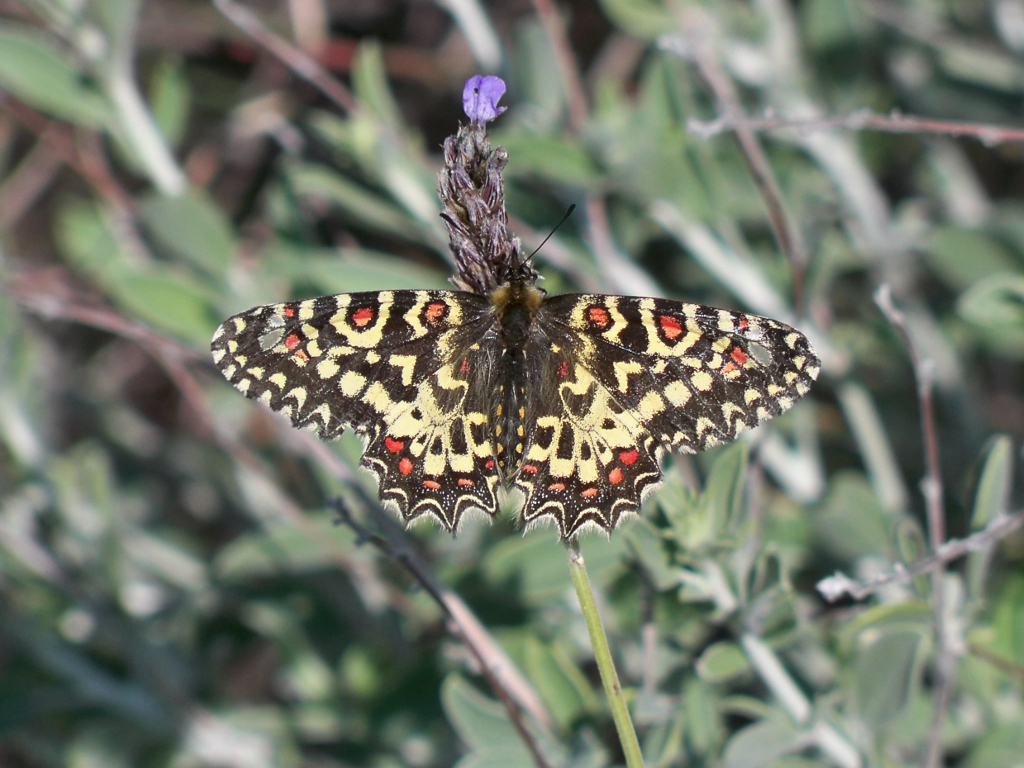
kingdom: Animalia
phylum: Arthropoda
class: Insecta
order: Lepidoptera
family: Papilionidae
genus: Zerynthia
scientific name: Zerynthia rumina
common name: Spanish festoon
